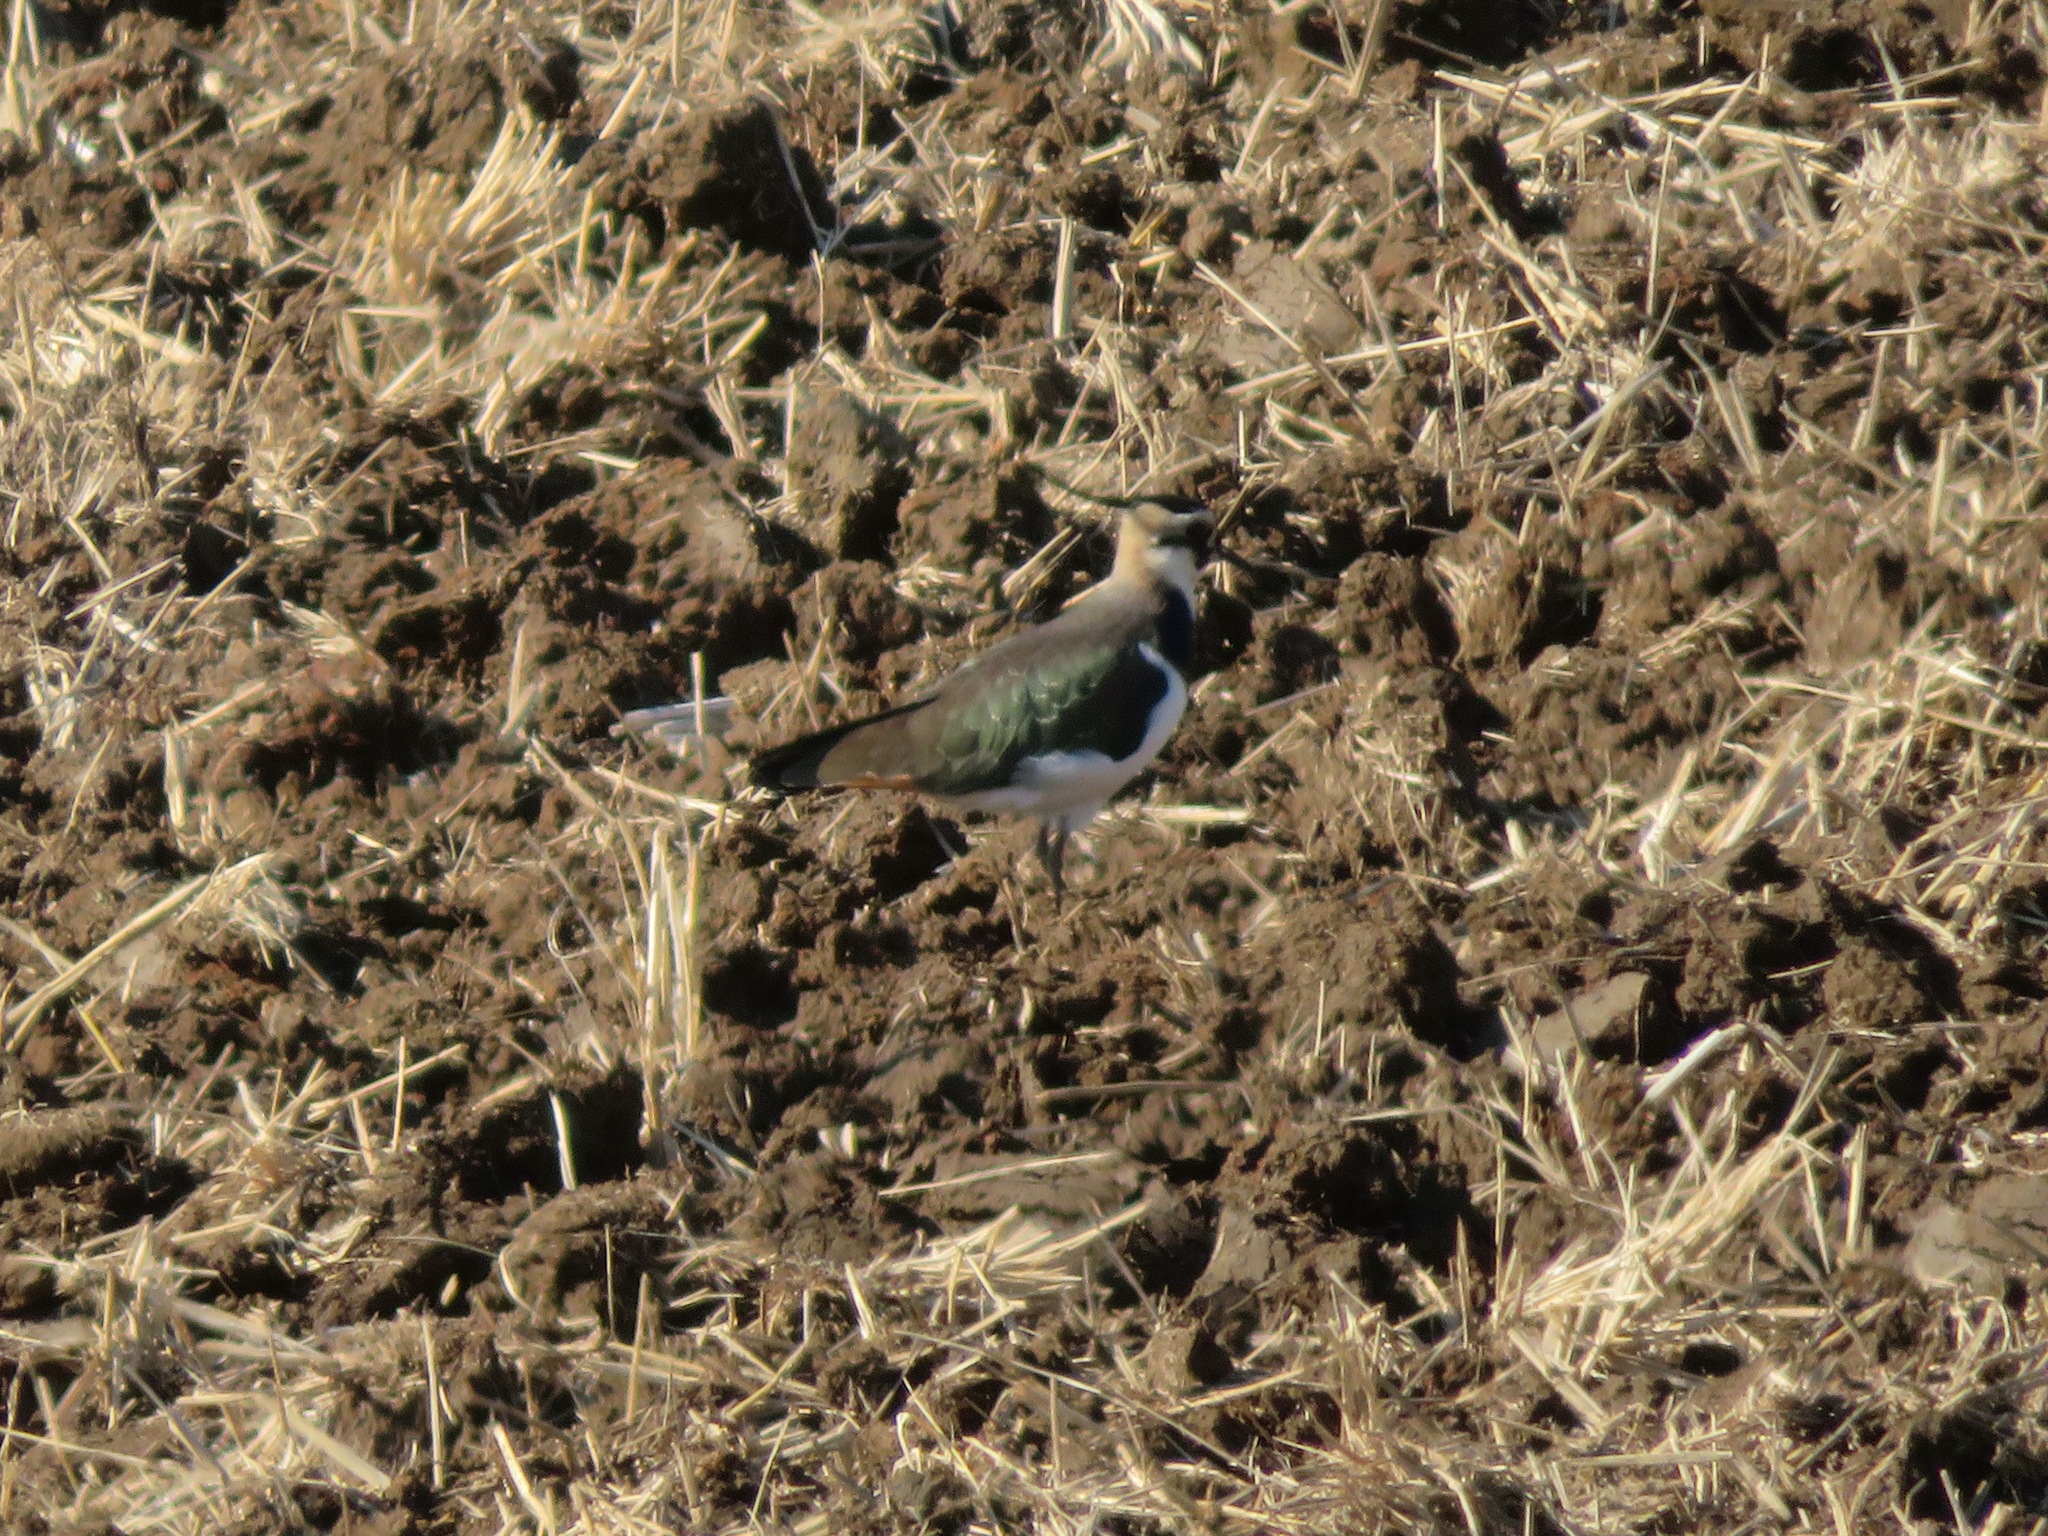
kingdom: Animalia
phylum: Chordata
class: Aves
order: Charadriiformes
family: Charadriidae
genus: Vanellus
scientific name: Vanellus vanellus
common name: Northern lapwing
